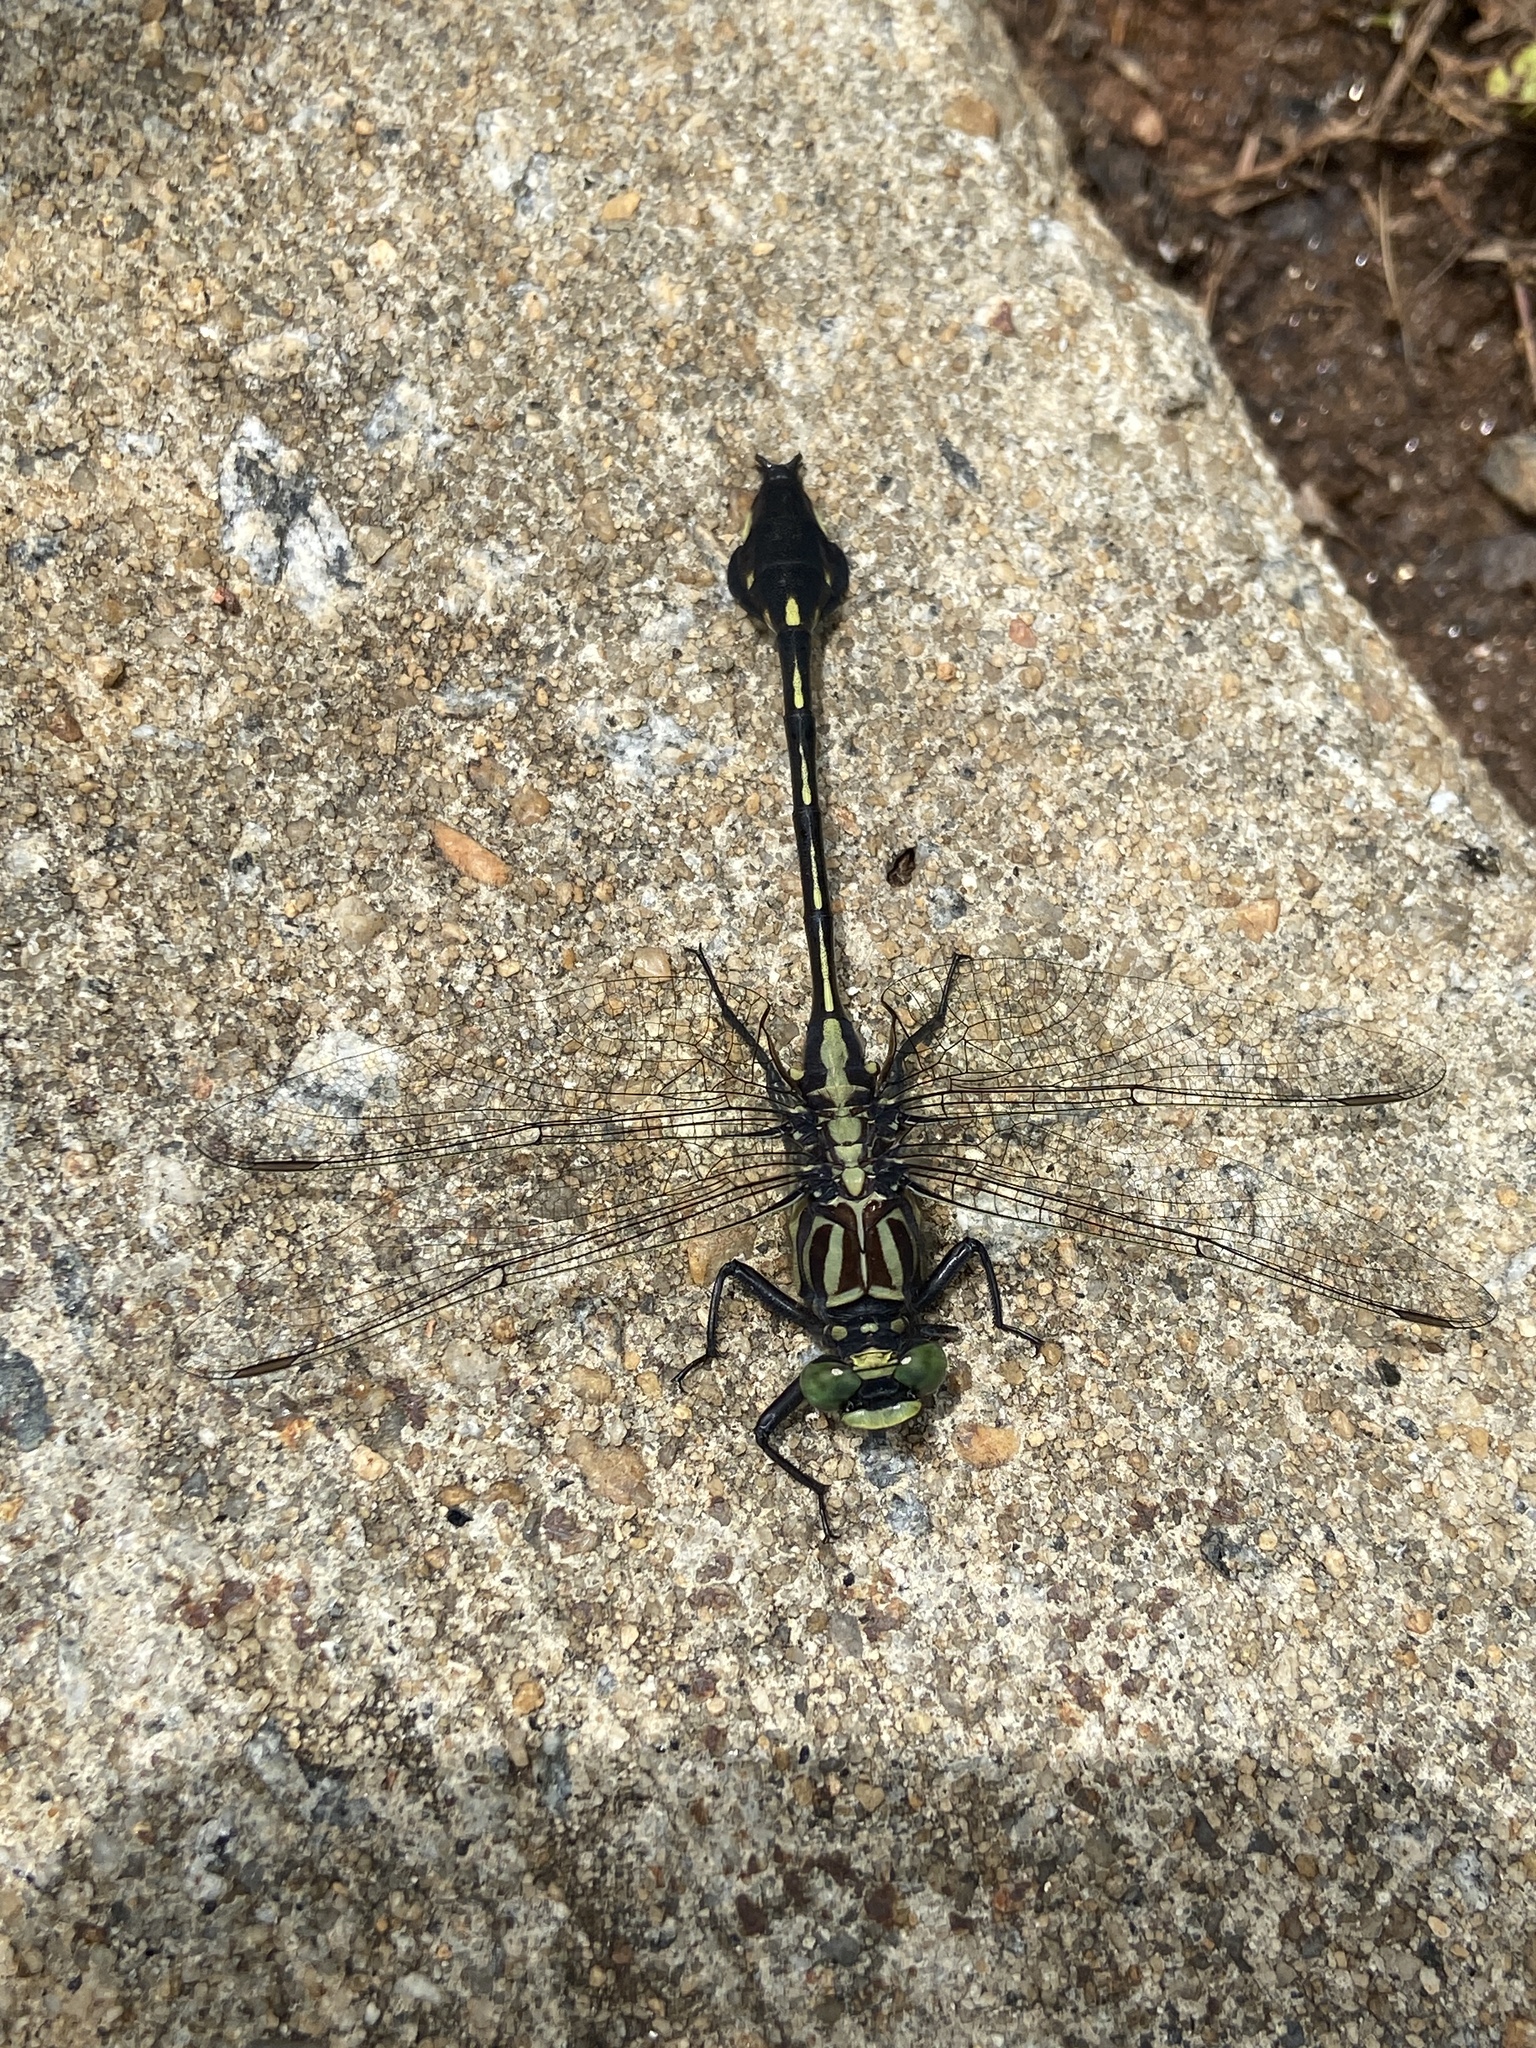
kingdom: Animalia
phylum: Arthropoda
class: Insecta
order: Odonata
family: Gomphidae
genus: Gomphurus
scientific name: Gomphurus dilatatus
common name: Blackwater clubtail
